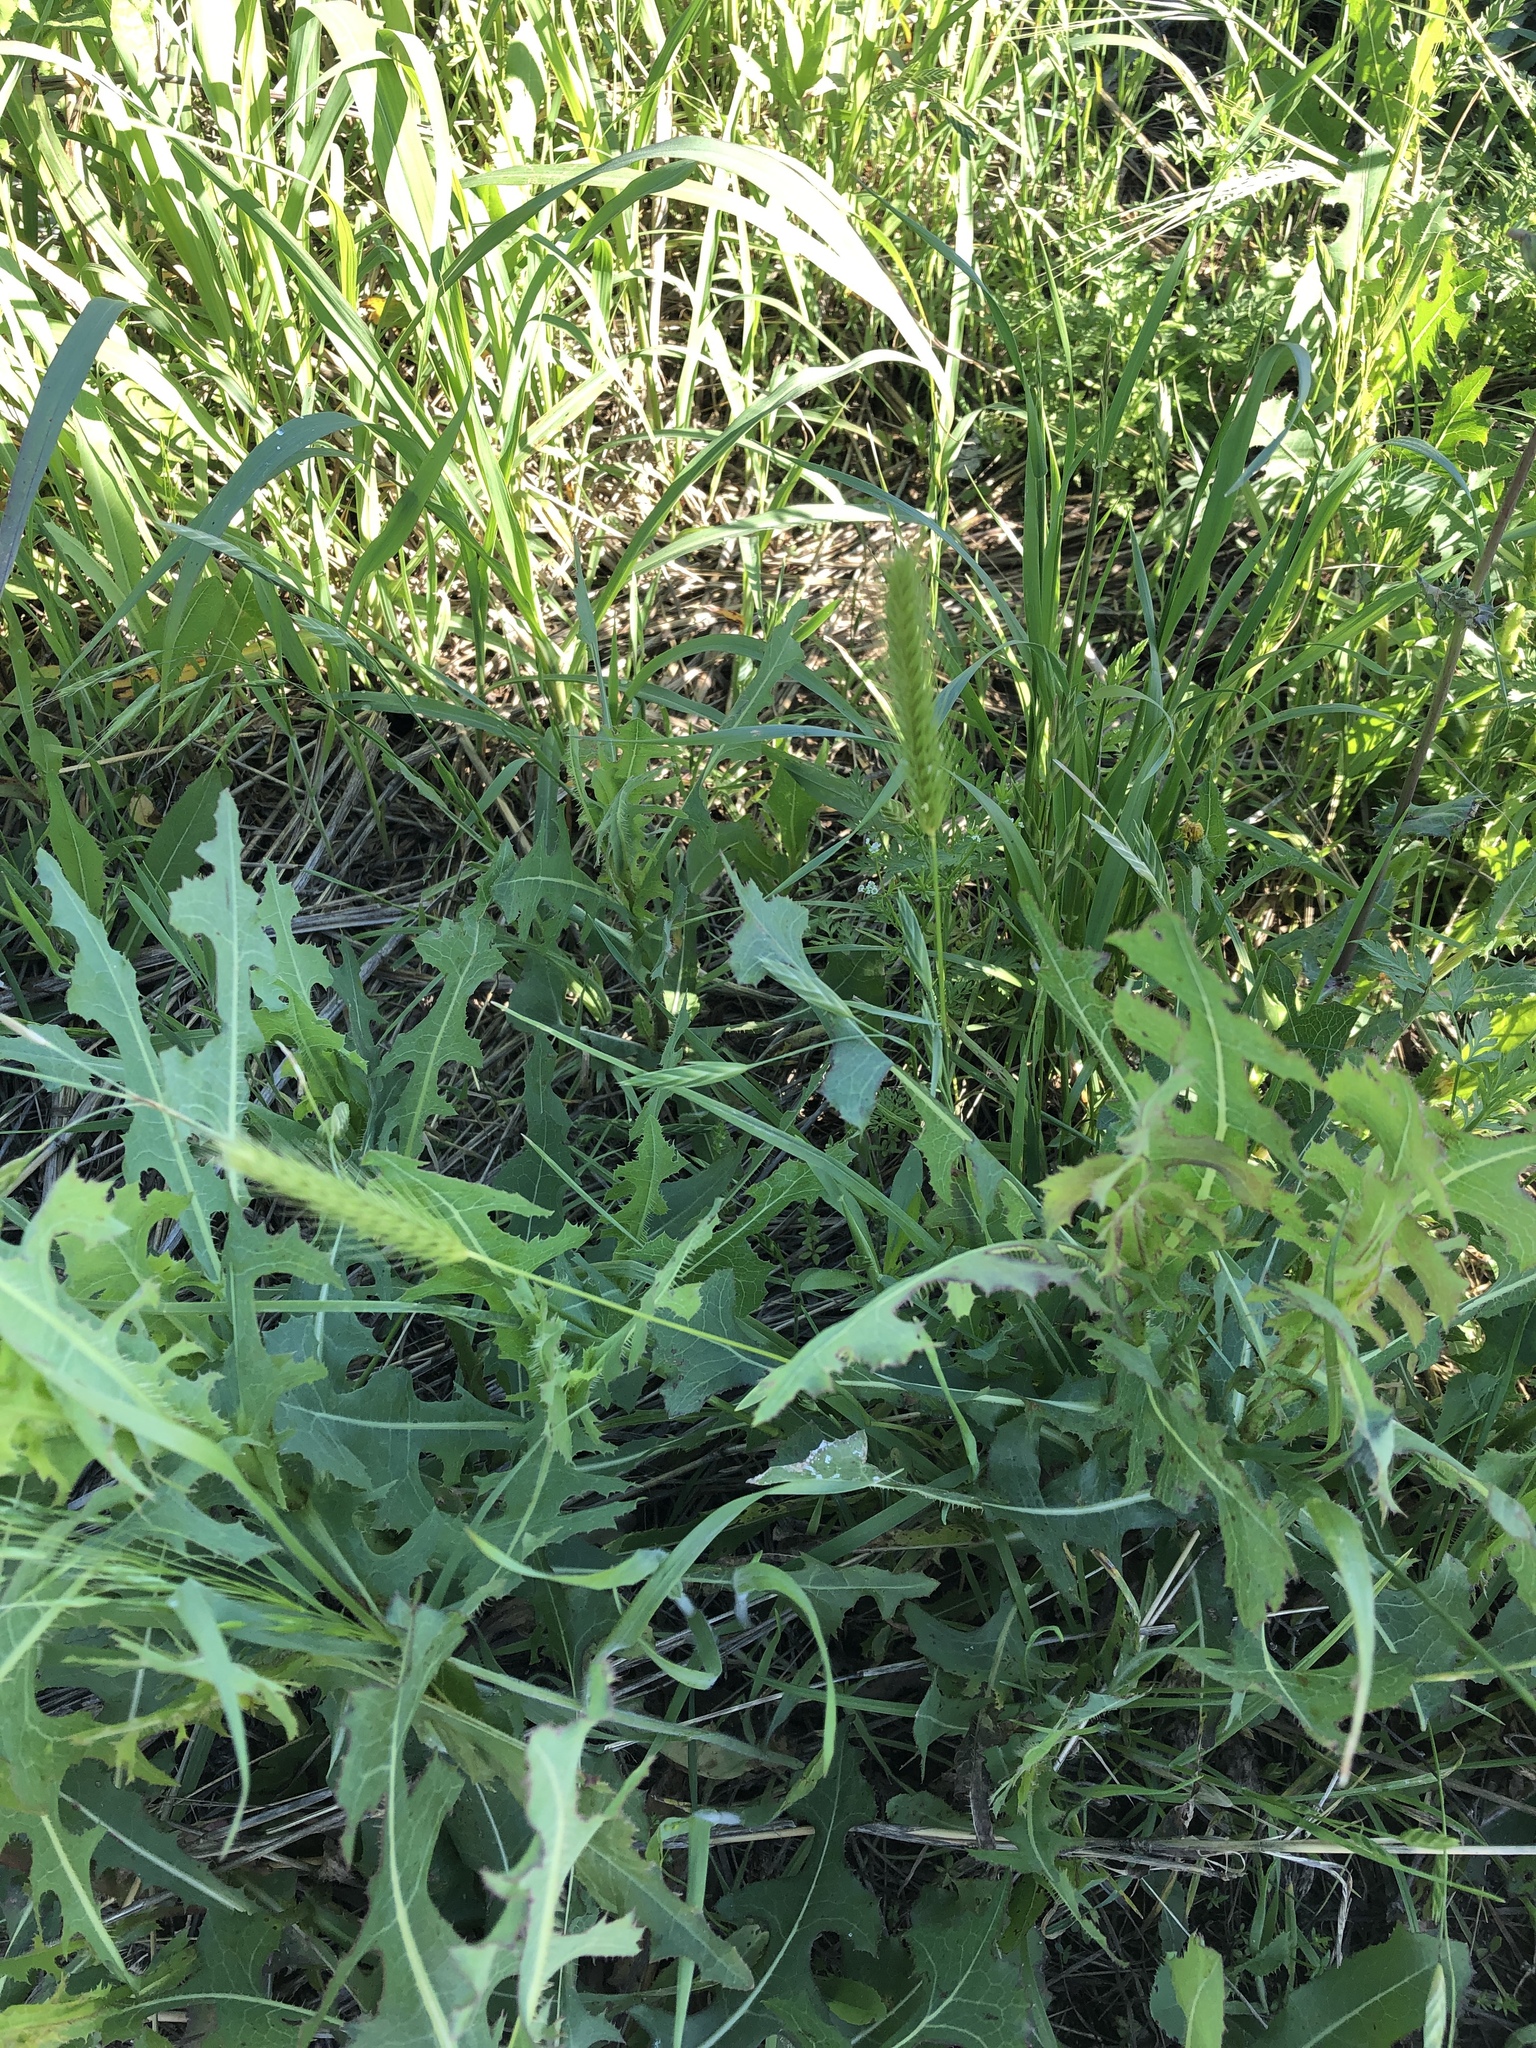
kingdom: Plantae
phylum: Tracheophyta
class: Liliopsida
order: Poales
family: Poaceae
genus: Hordeum
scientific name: Hordeum pusillum
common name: Little barley
